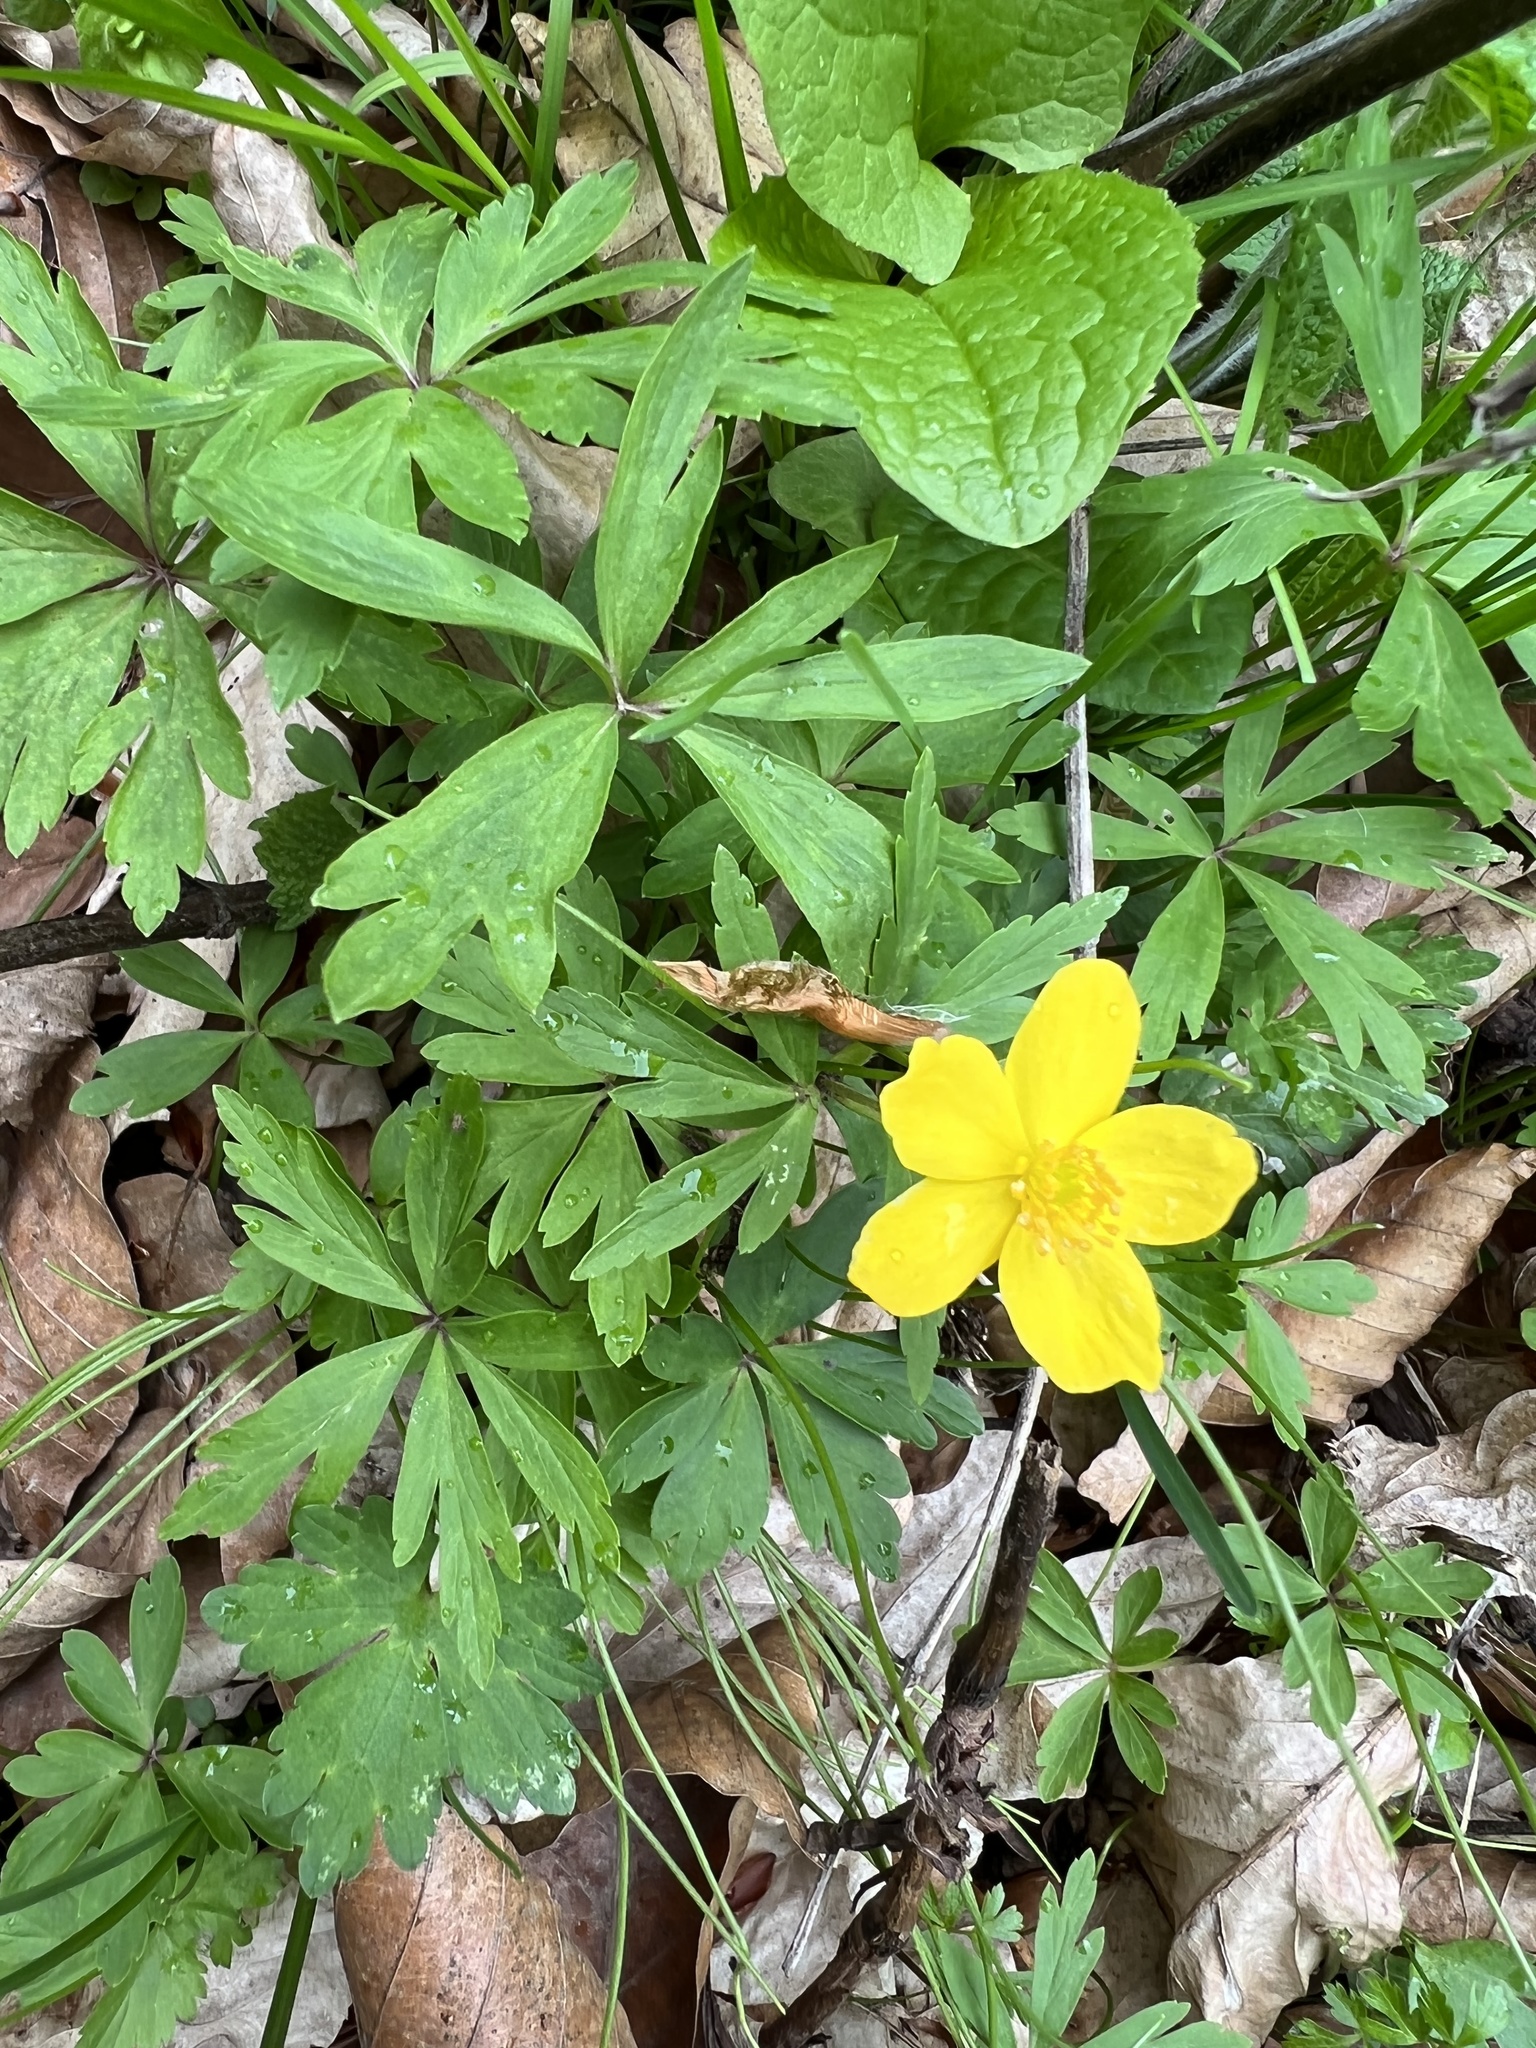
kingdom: Plantae
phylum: Tracheophyta
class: Magnoliopsida
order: Ranunculales
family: Ranunculaceae
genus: Anemone
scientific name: Anemone ranunculoides
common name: Yellow anemone
